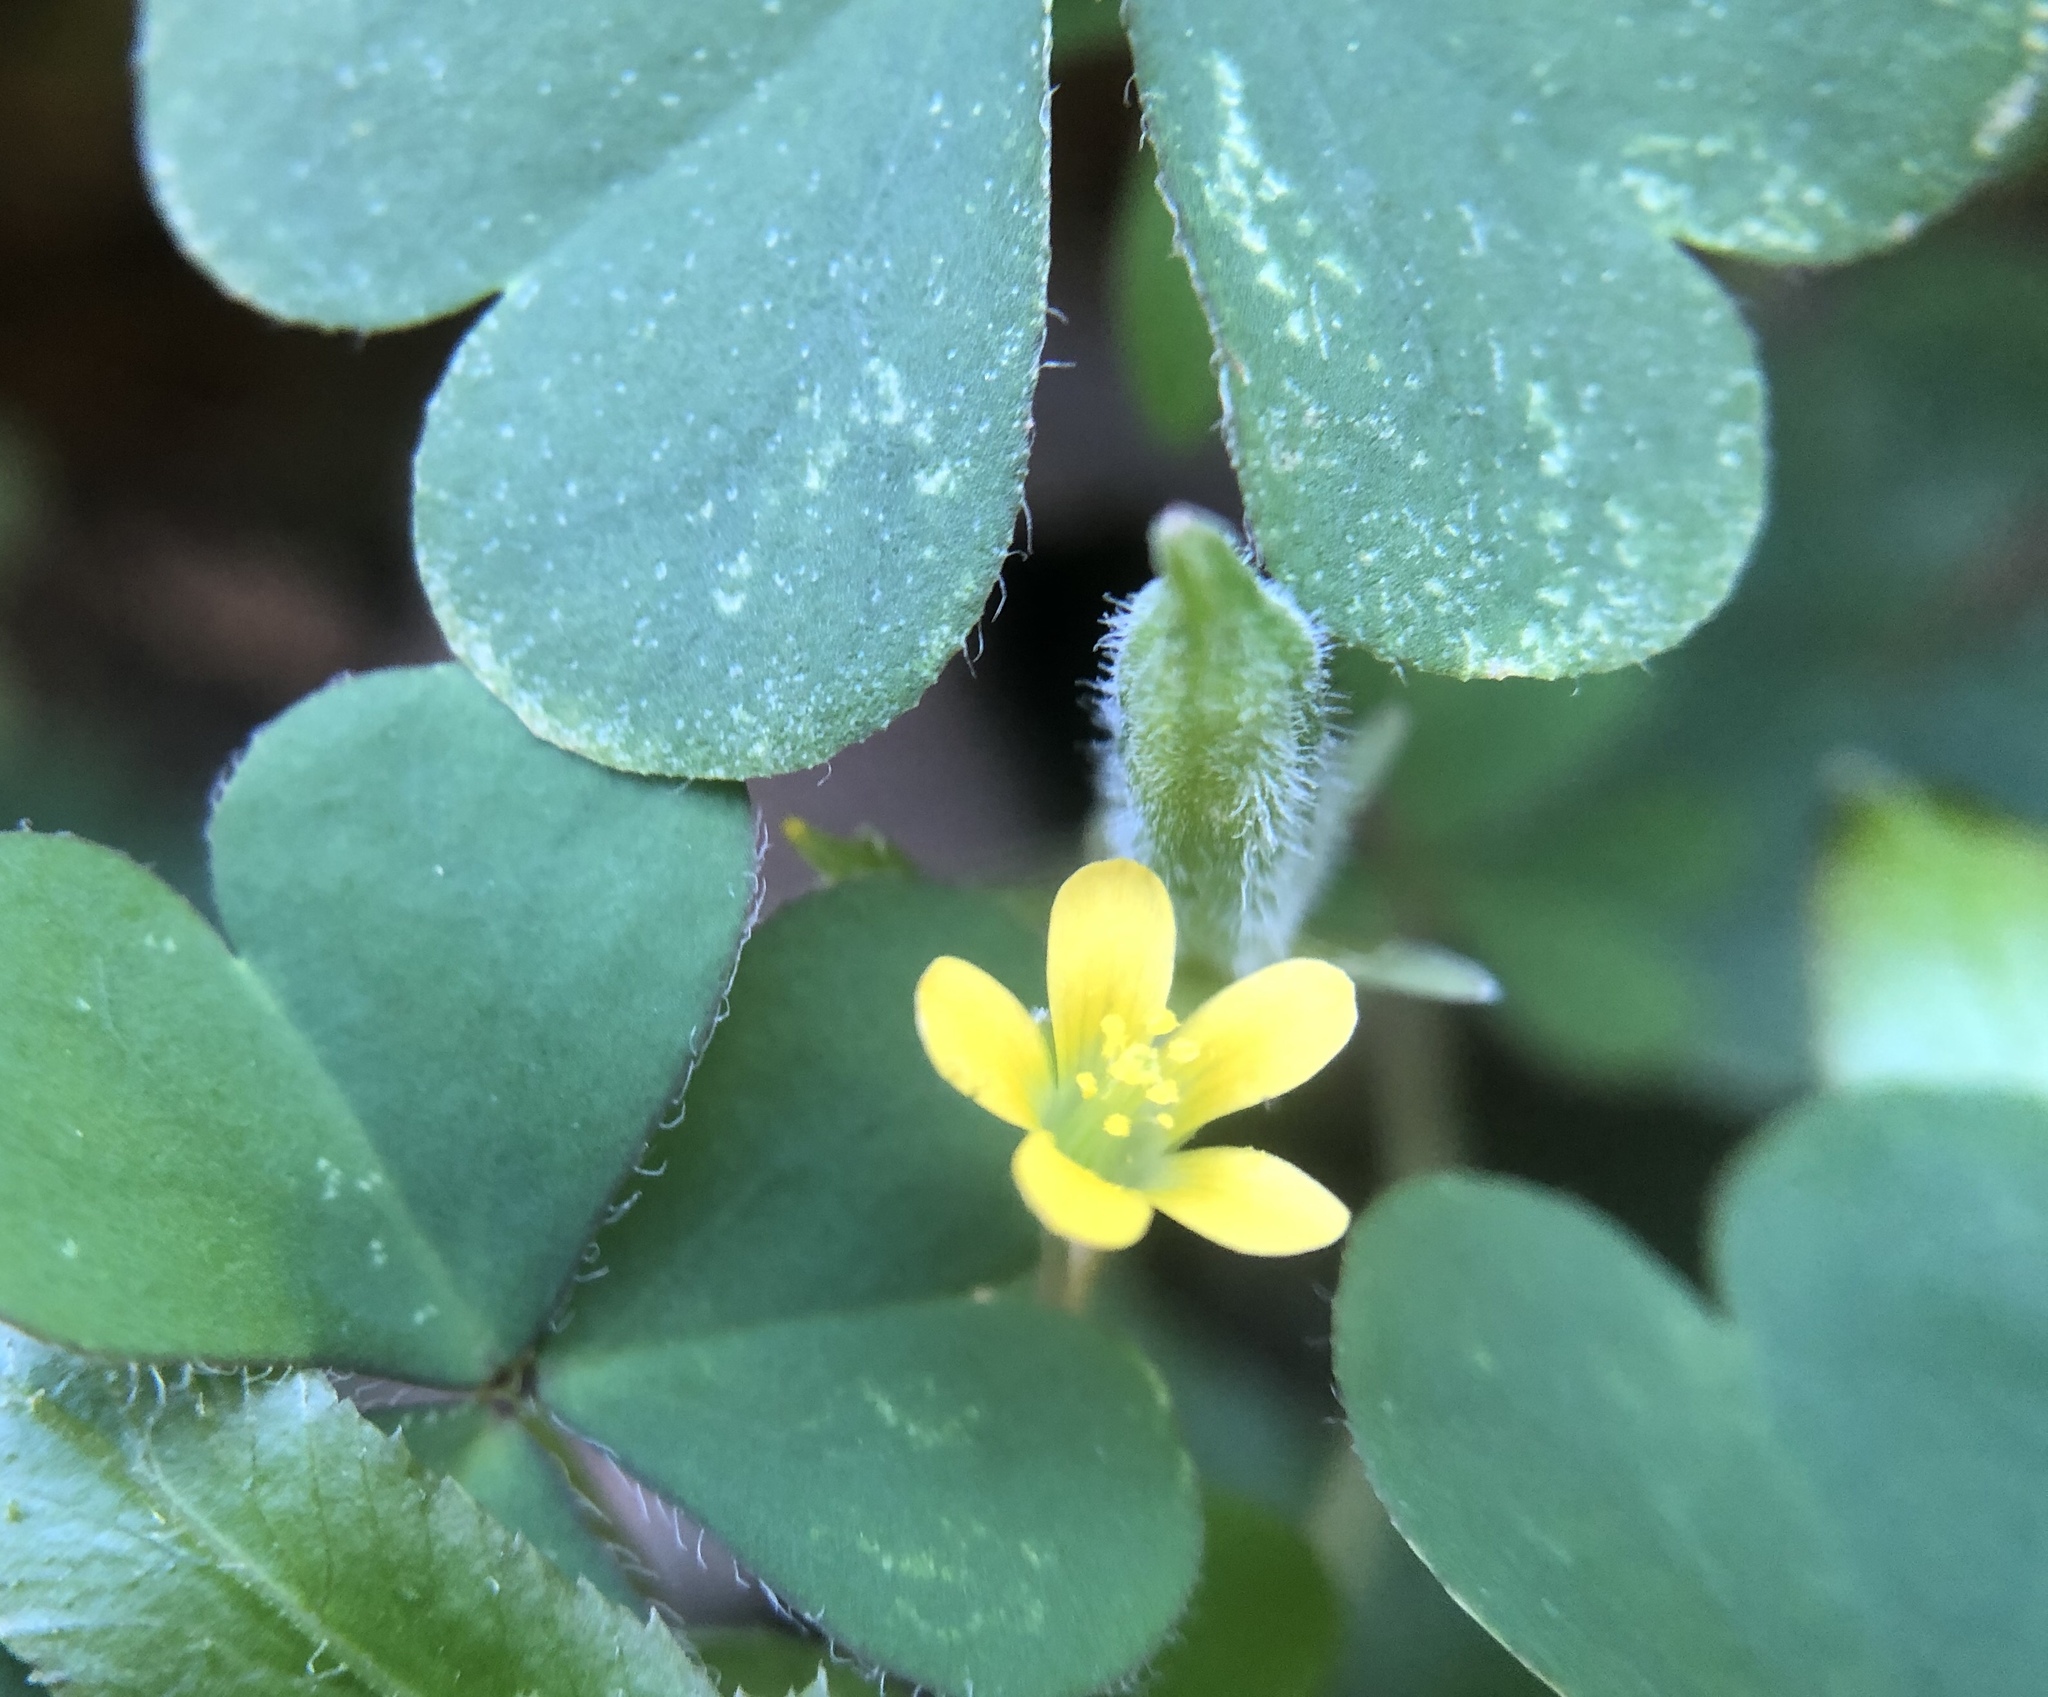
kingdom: Plantae
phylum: Tracheophyta
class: Magnoliopsida
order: Oxalidales
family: Oxalidaceae
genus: Oxalis
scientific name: Oxalis corniculata
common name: Procumbent yellow-sorrel
